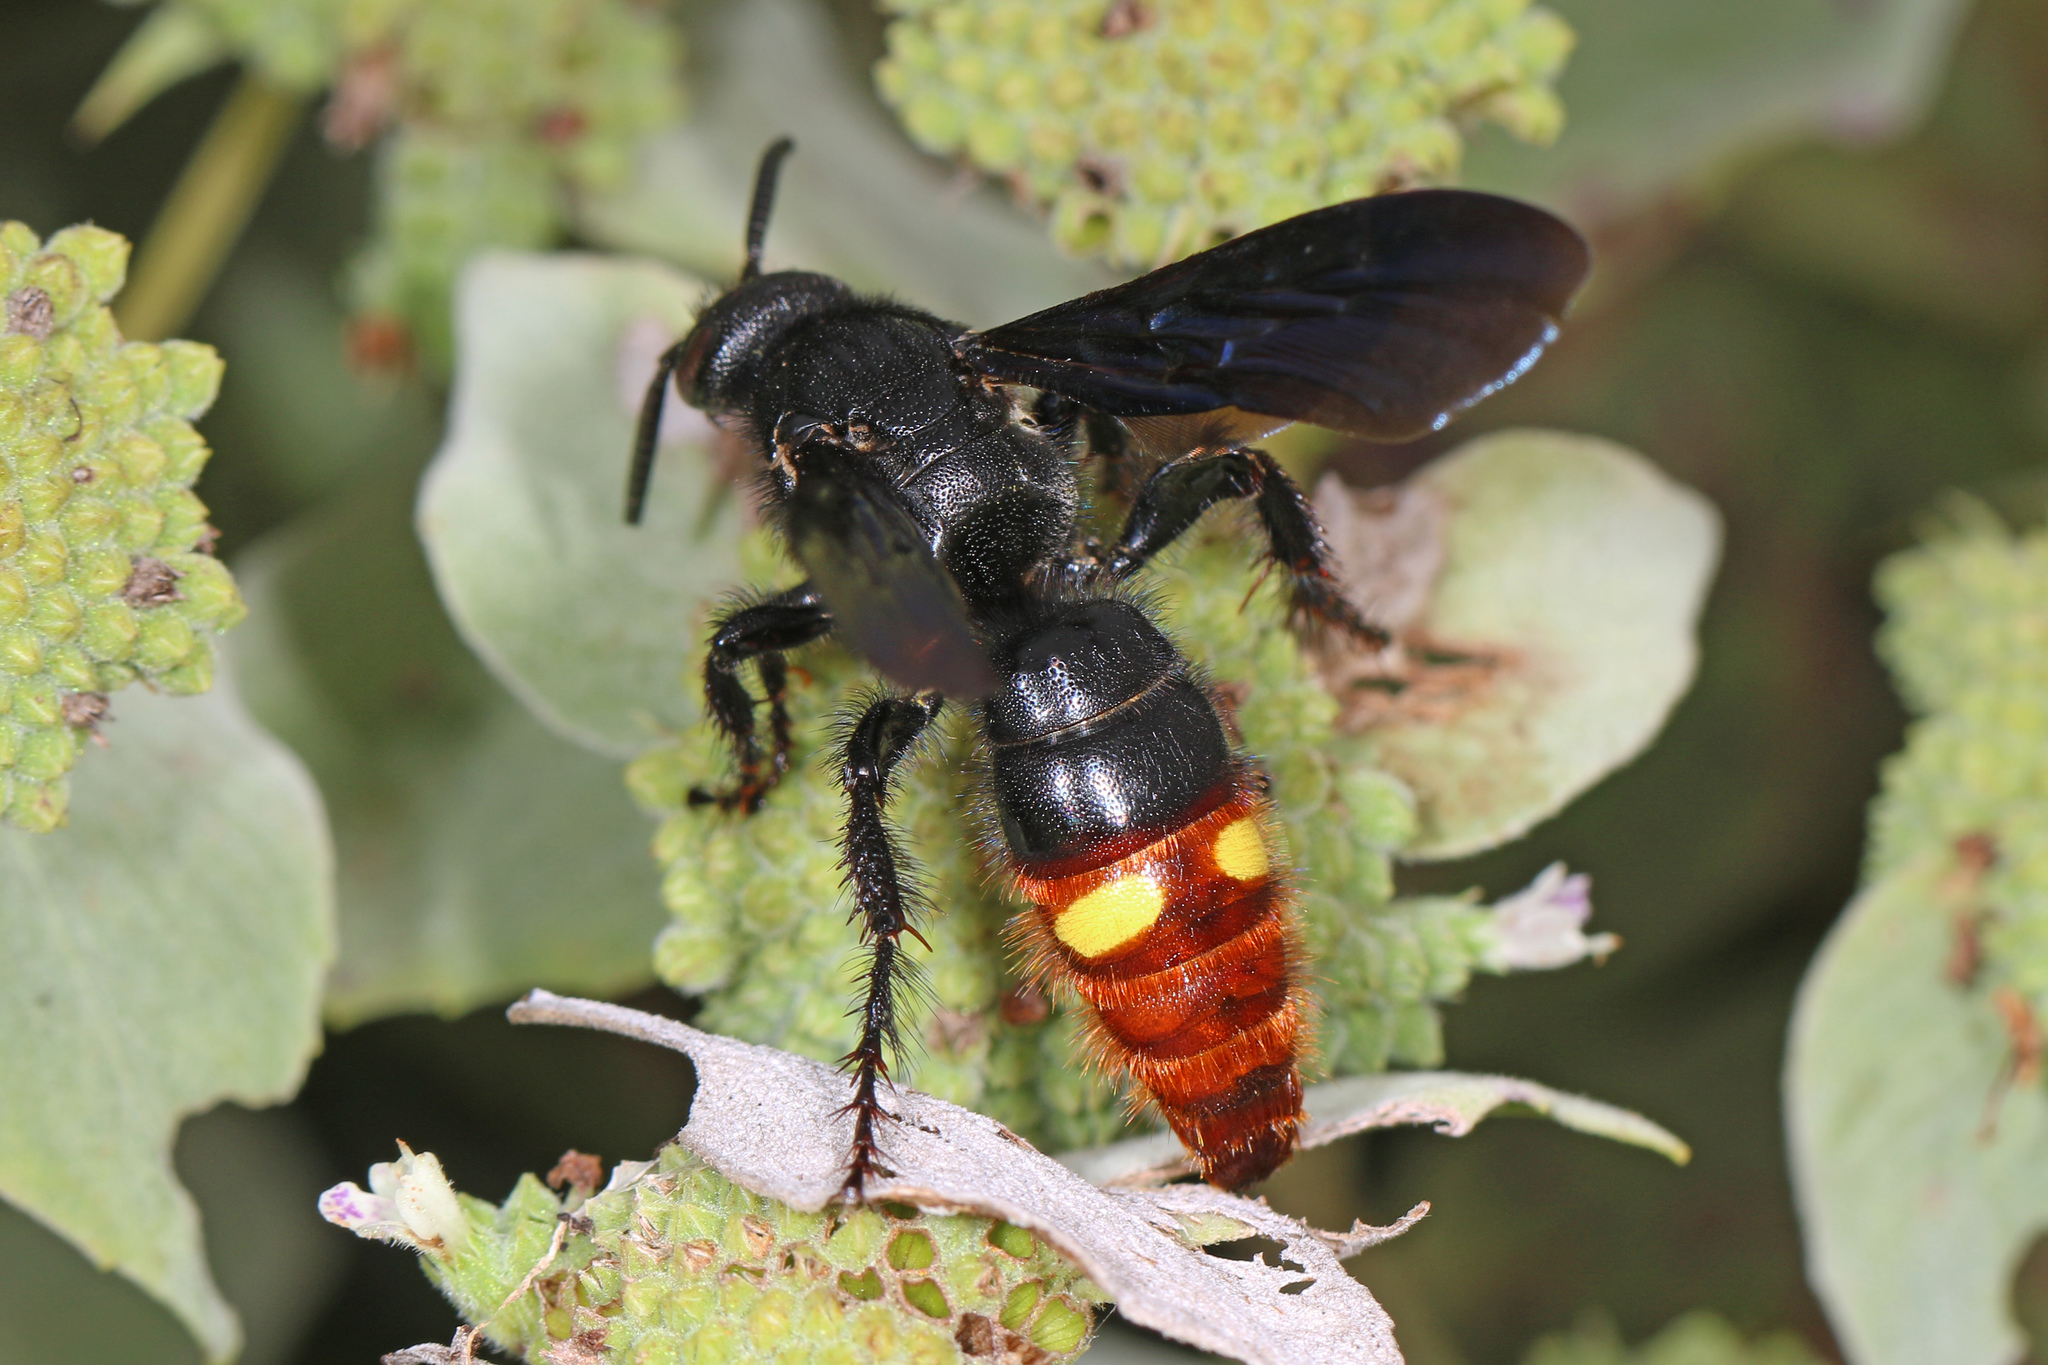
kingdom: Animalia
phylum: Arthropoda
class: Insecta
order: Hymenoptera
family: Scoliidae
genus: Scolia
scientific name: Scolia dubia
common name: Blue-winged scoliid wasp
